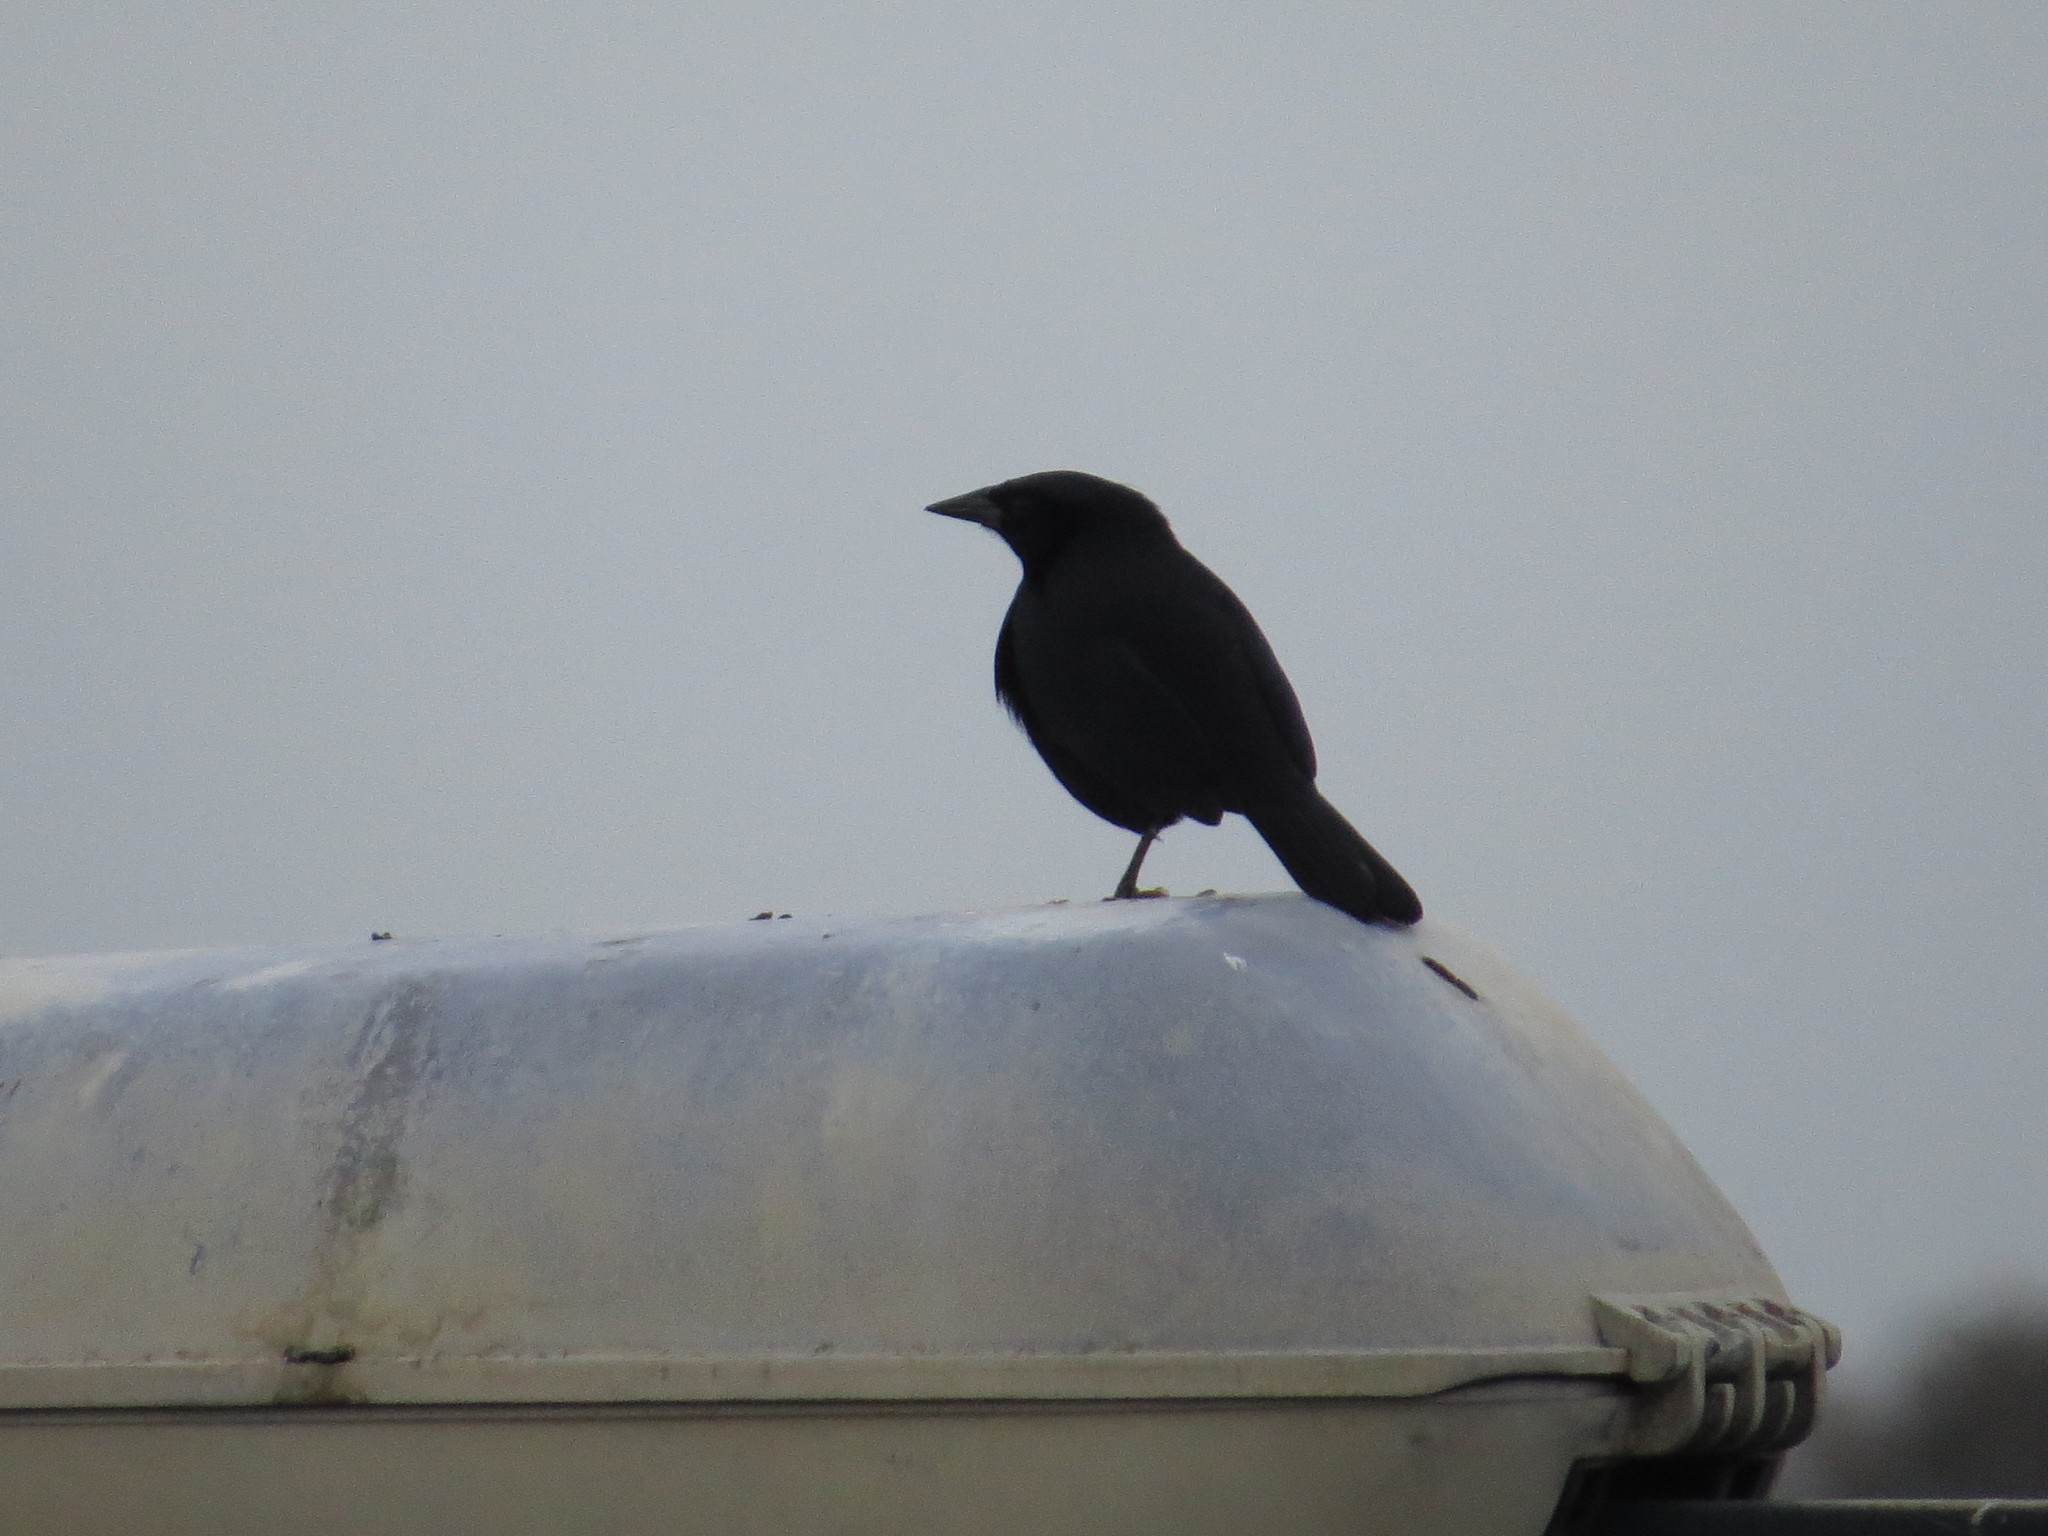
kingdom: Animalia
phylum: Chordata
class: Aves
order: Passeriformes
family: Icteridae
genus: Dives
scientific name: Dives warczewiczi
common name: Scrub blackbird
